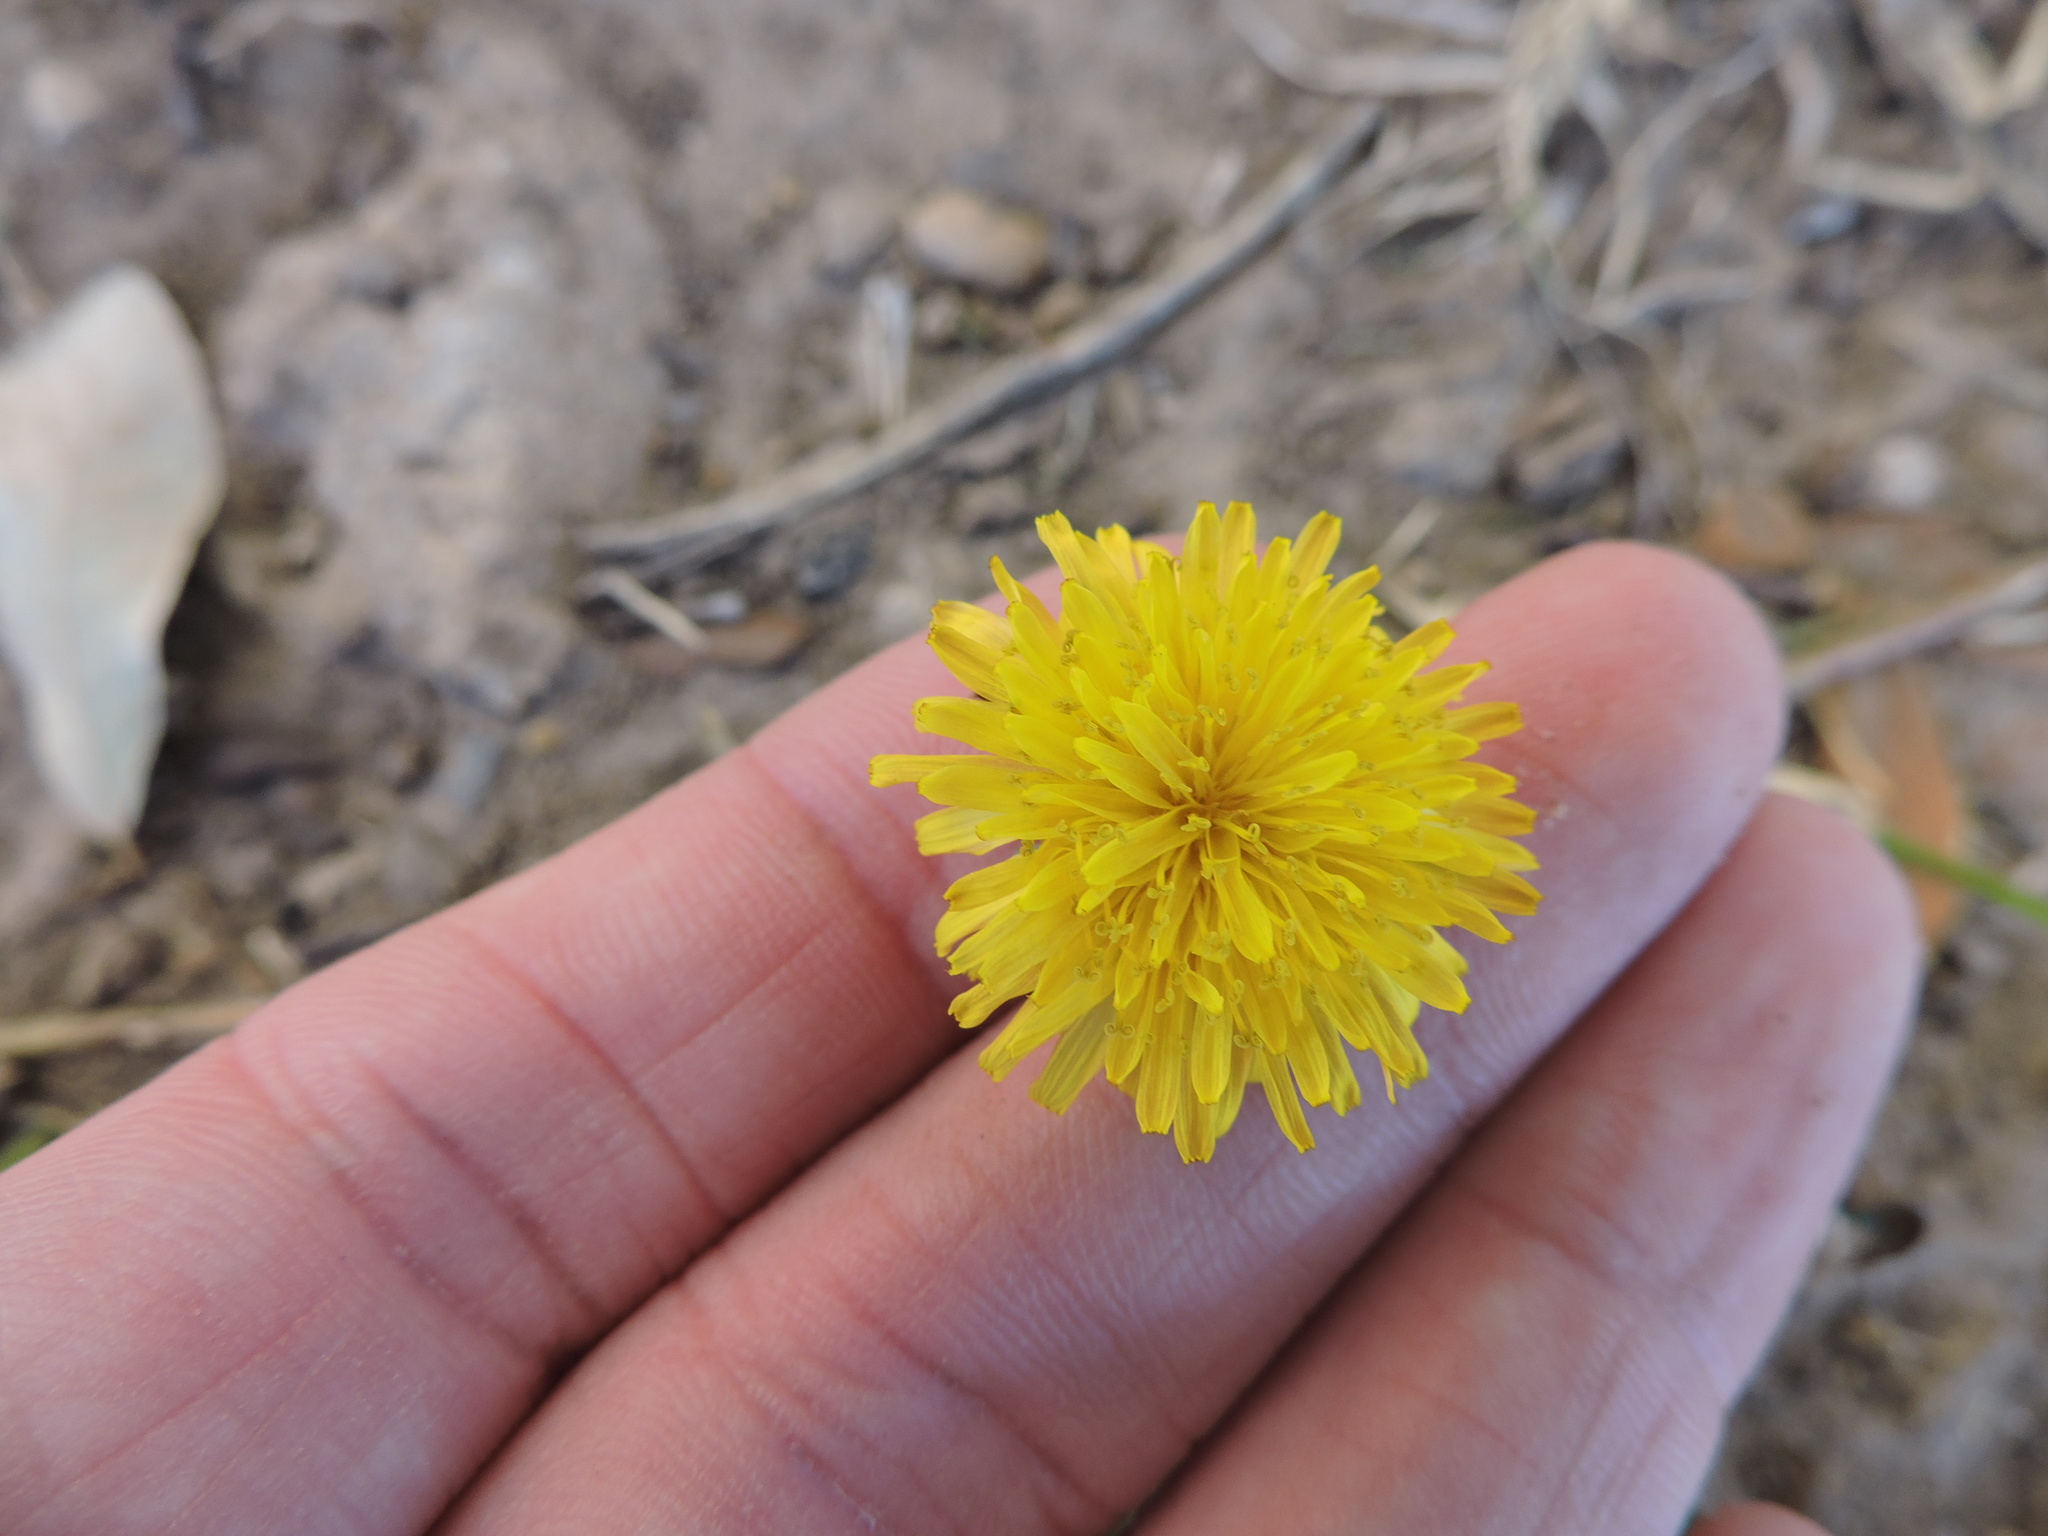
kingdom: Plantae
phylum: Tracheophyta
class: Magnoliopsida
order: Asterales
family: Asteraceae
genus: Taraxacum
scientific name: Taraxacum officinale
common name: Common dandelion
